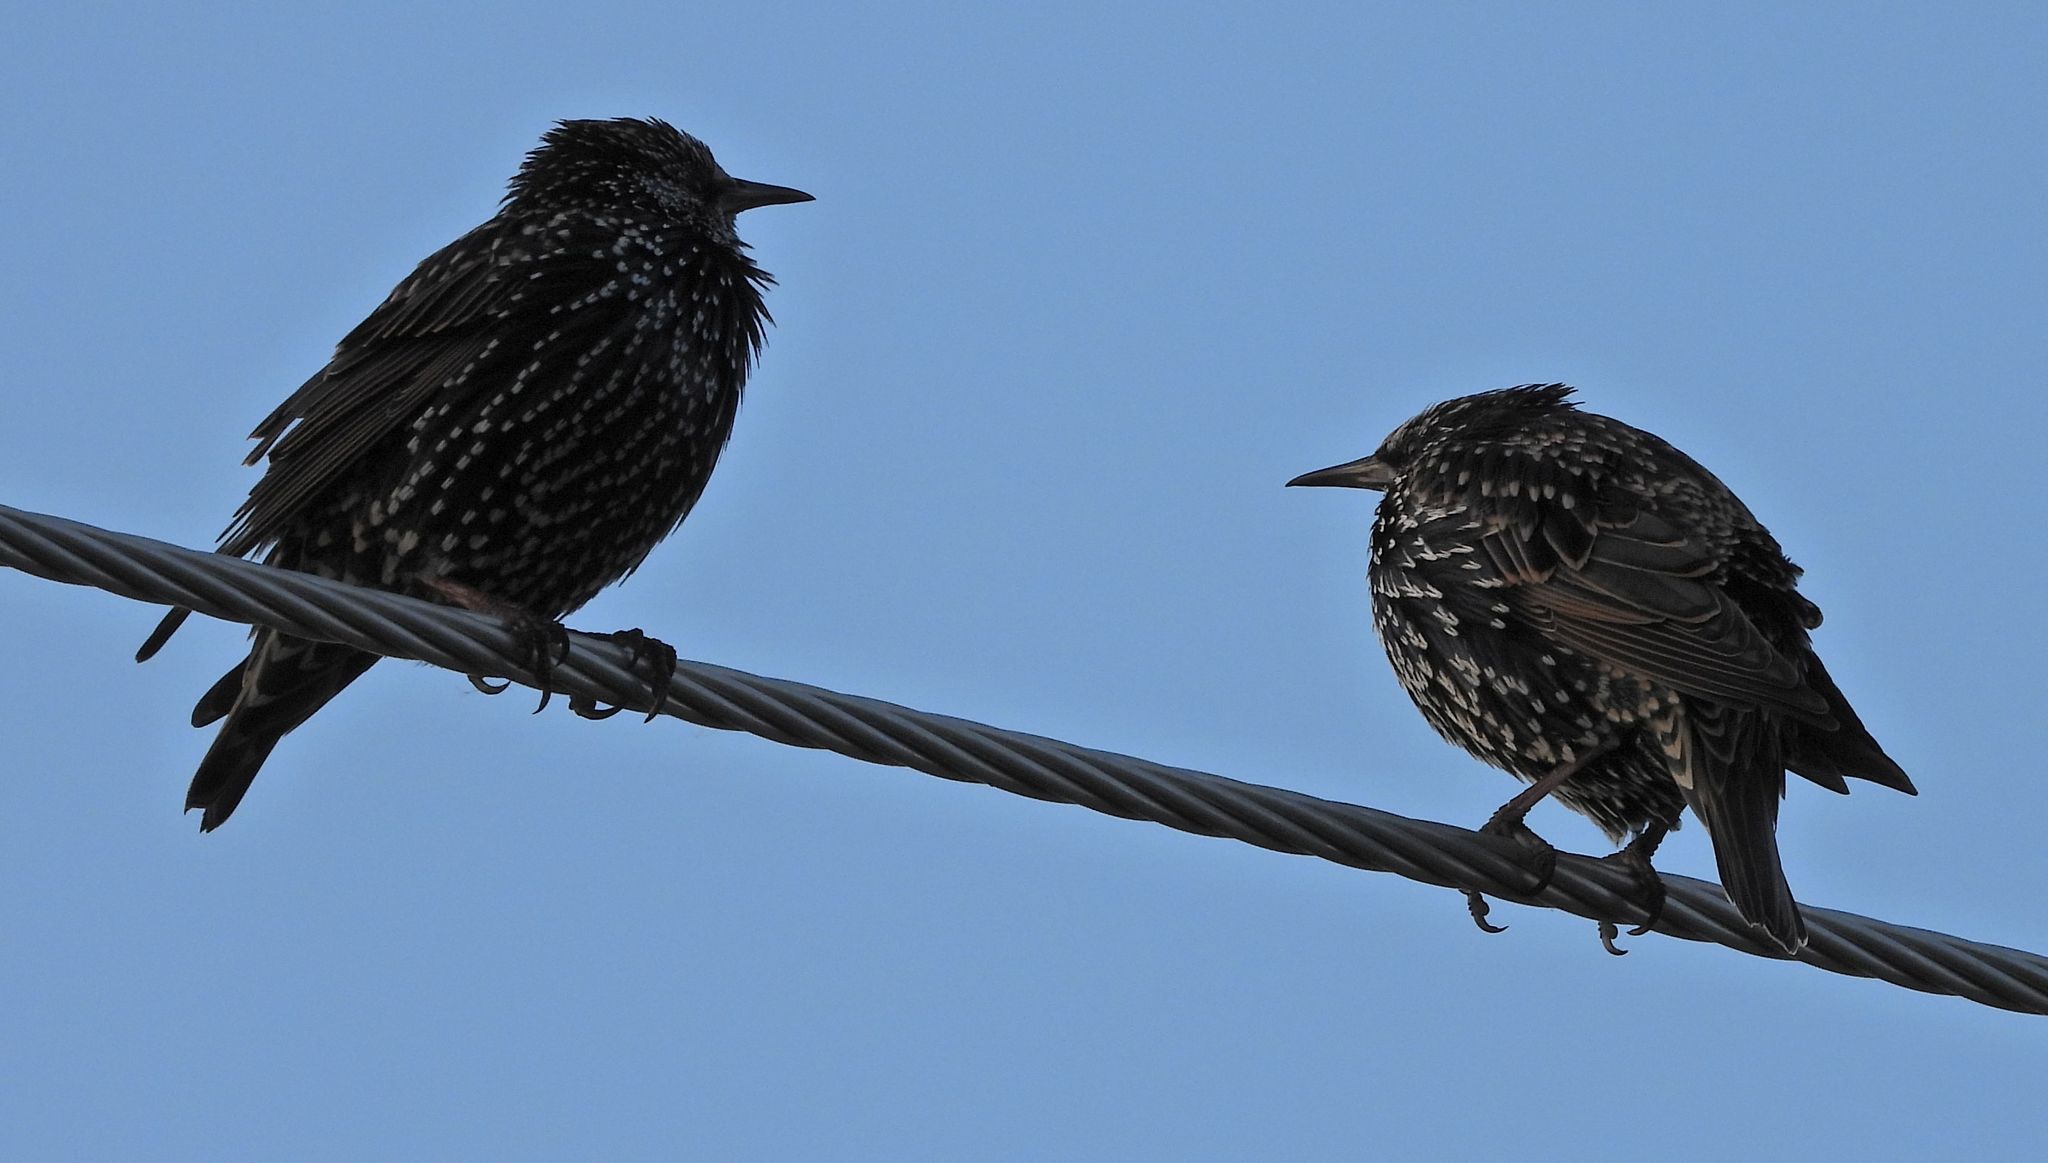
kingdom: Animalia
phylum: Chordata
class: Aves
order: Passeriformes
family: Sturnidae
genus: Sturnus
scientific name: Sturnus vulgaris
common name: Common starling
